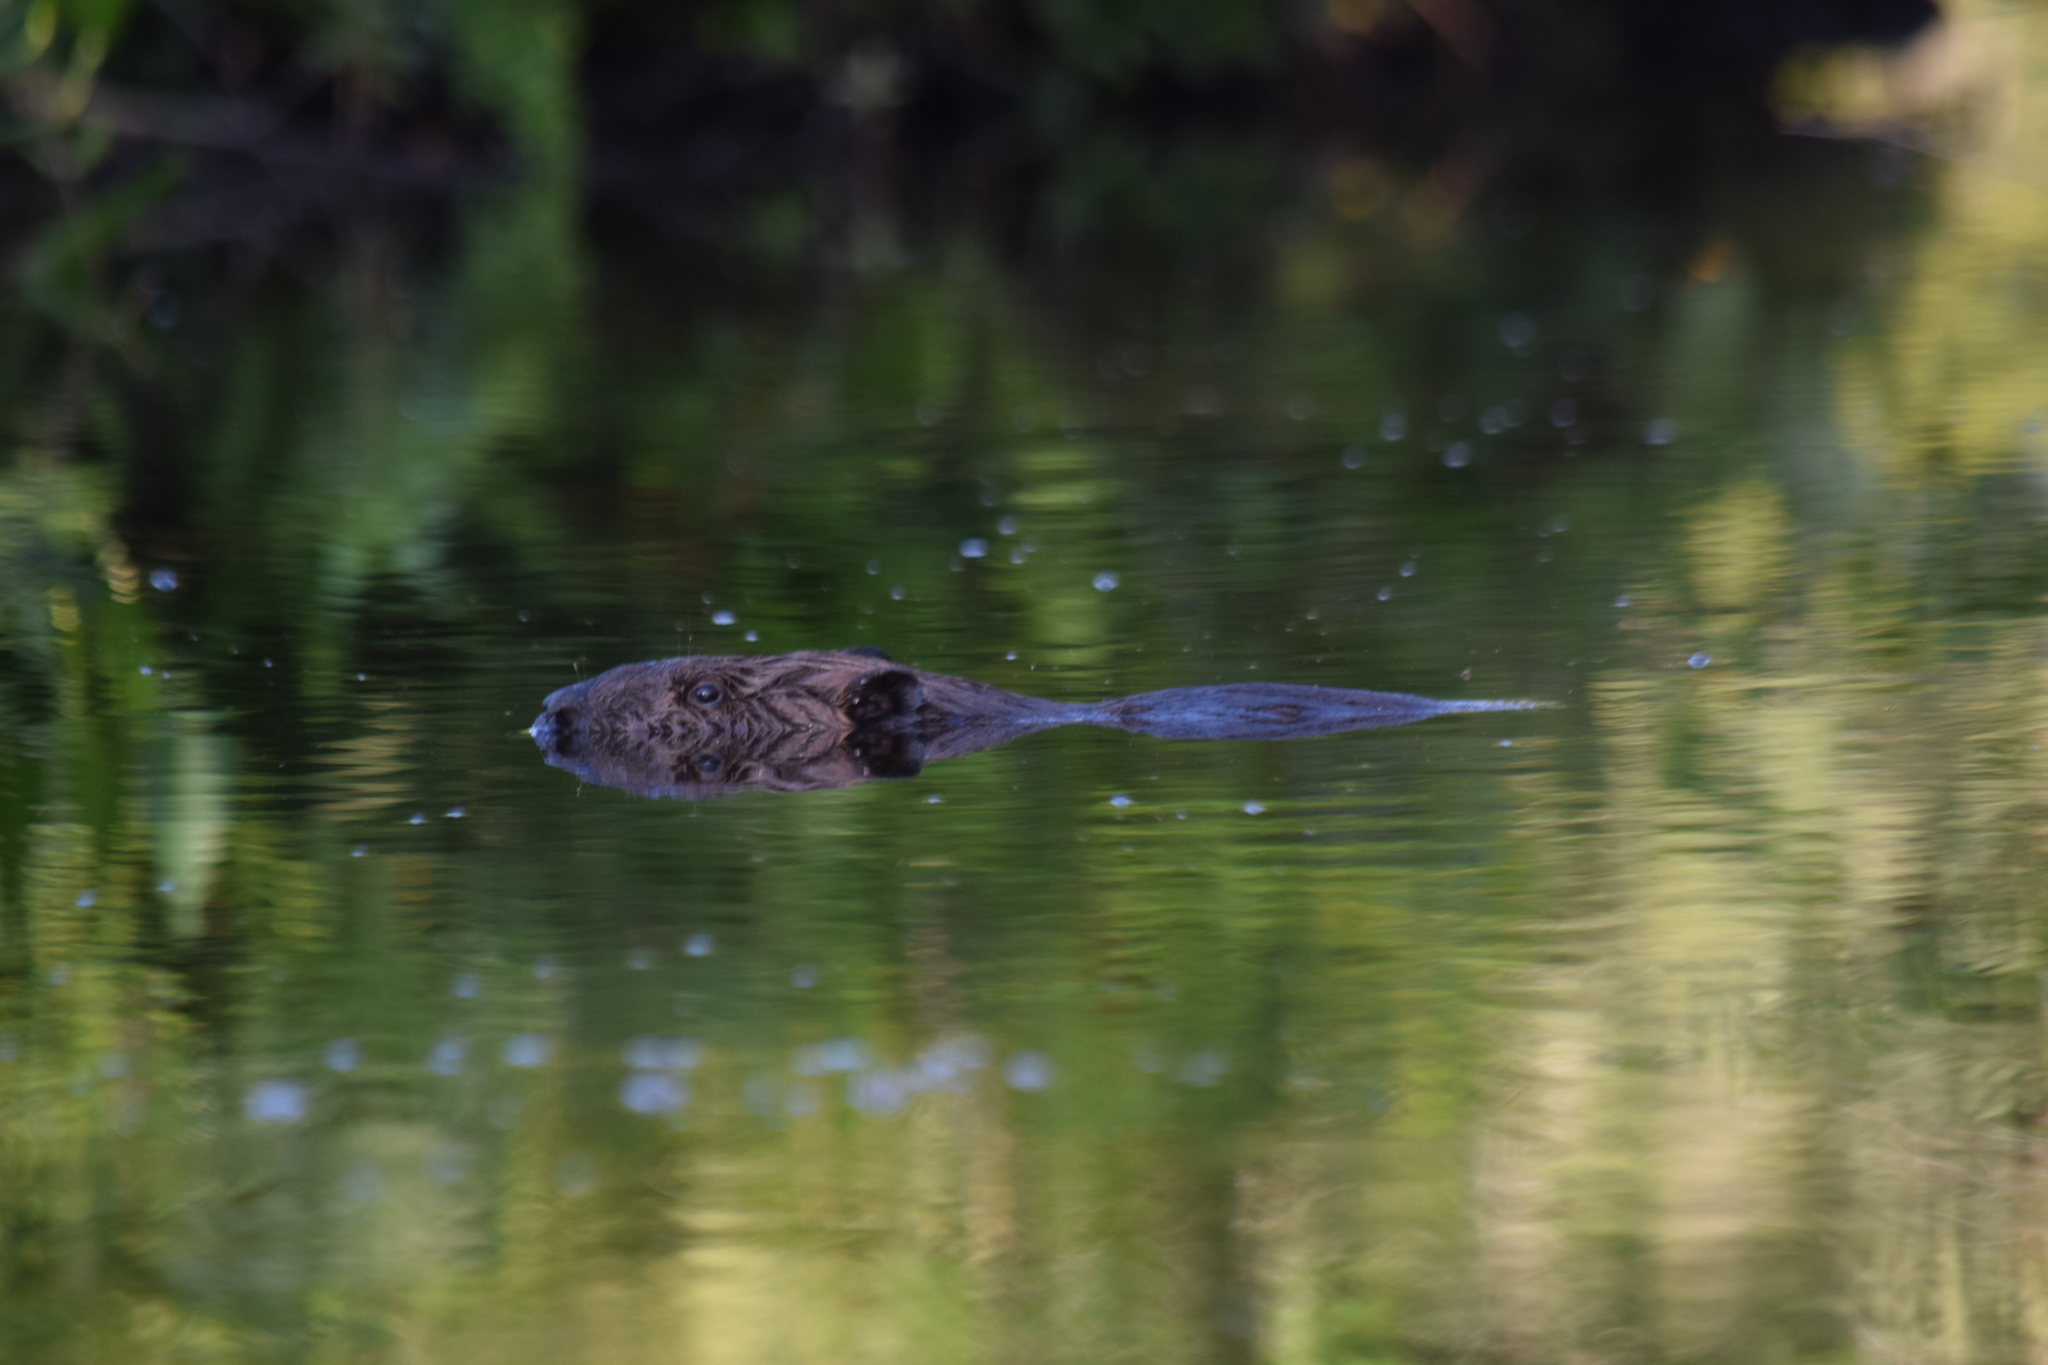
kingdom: Animalia
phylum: Chordata
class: Mammalia
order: Rodentia
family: Castoridae
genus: Castor
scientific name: Castor canadensis
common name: American beaver
